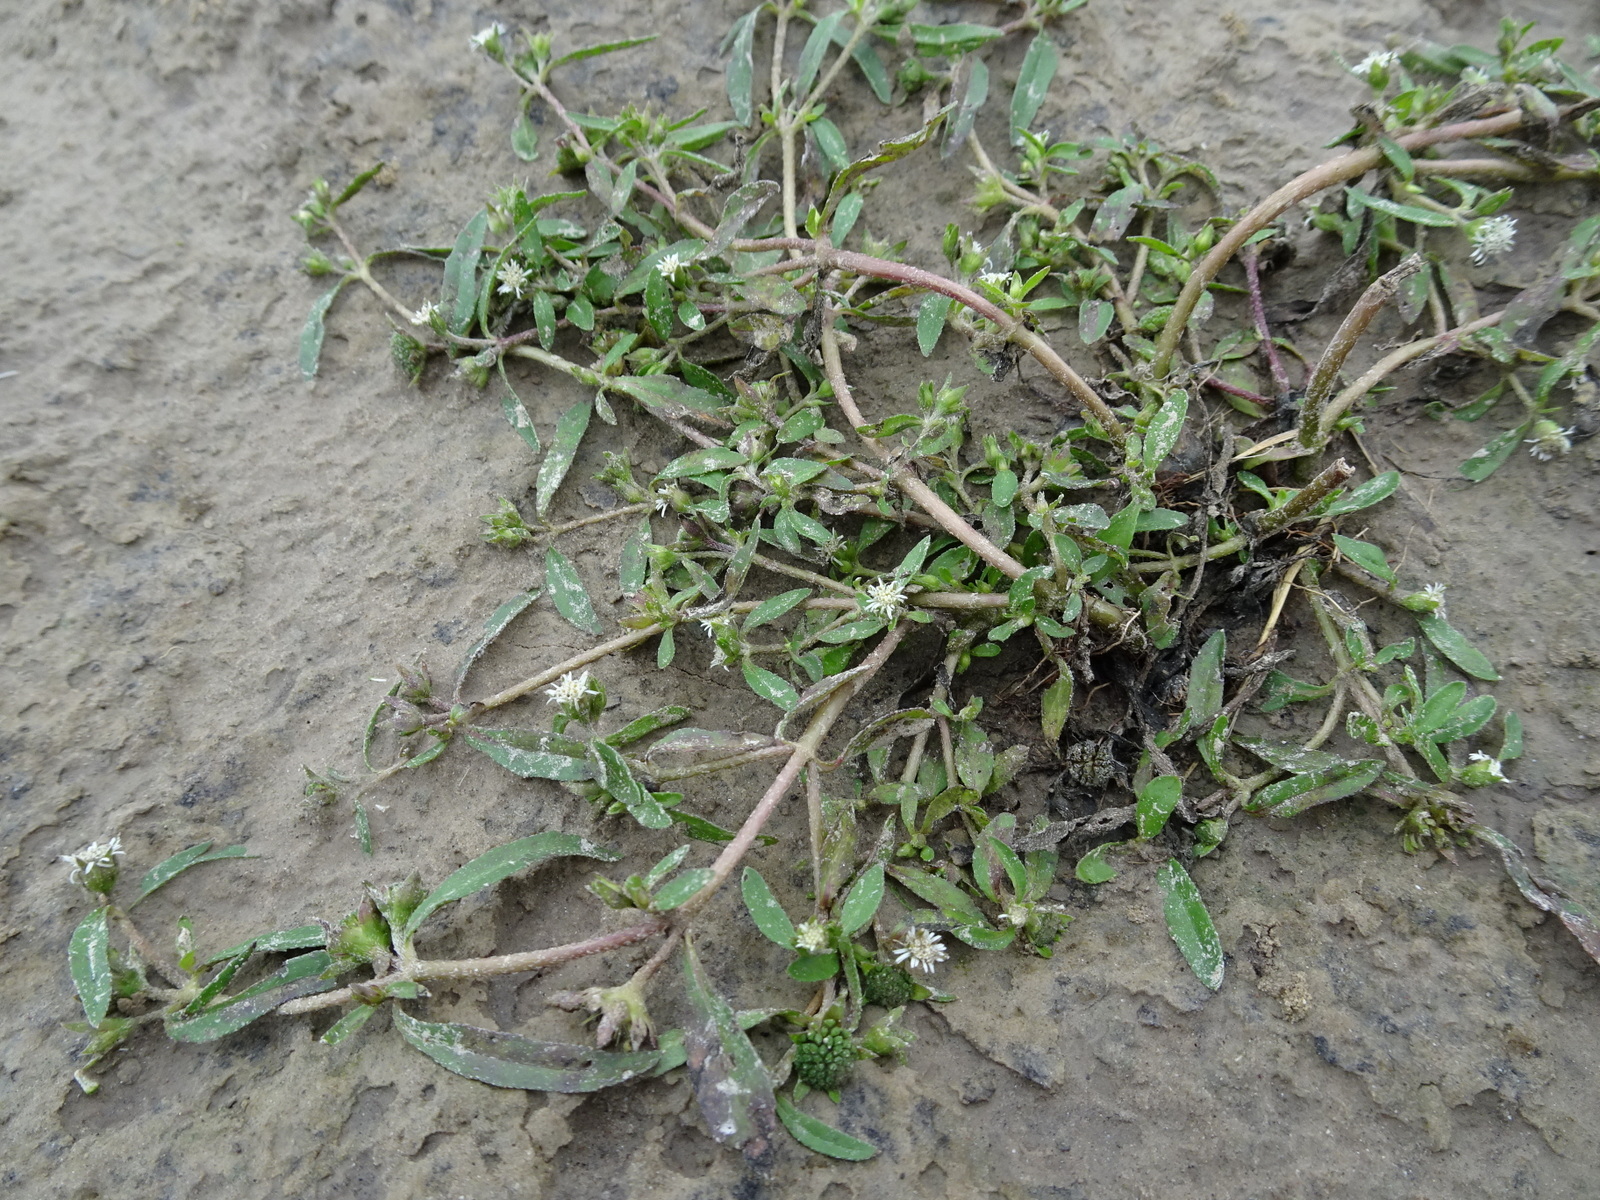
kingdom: Plantae
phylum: Tracheophyta
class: Magnoliopsida
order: Asterales
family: Asteraceae
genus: Eclipta
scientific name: Eclipta prostrata
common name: False daisy
